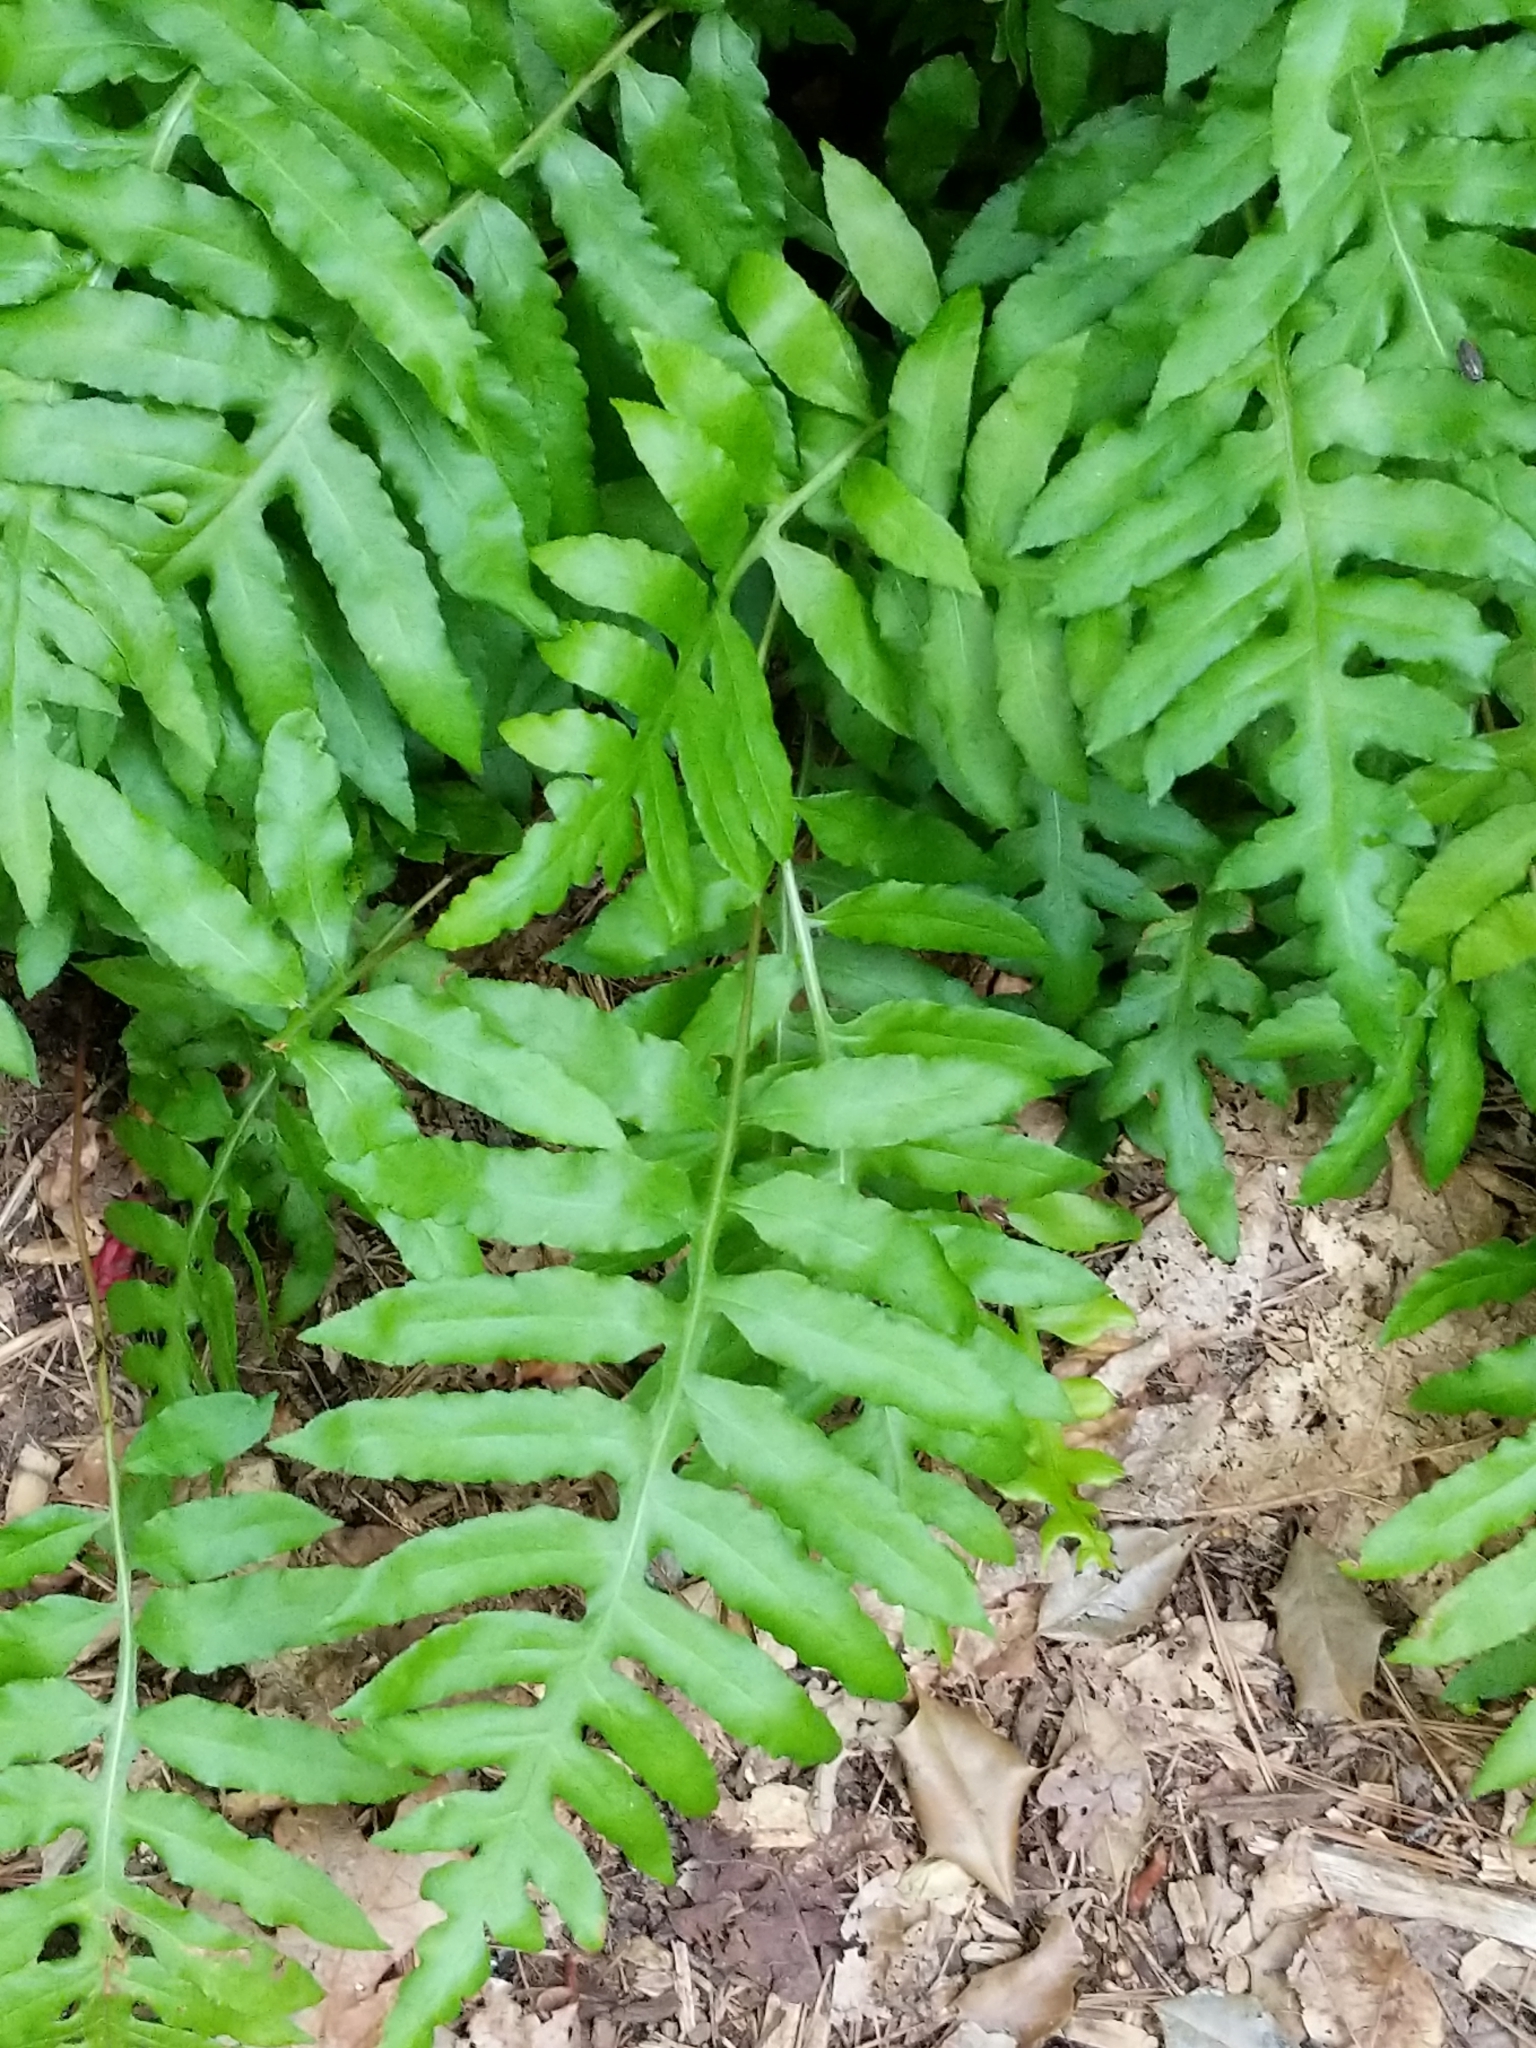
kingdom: Plantae
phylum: Tracheophyta
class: Polypodiopsida
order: Polypodiales
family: Blechnaceae
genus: Lorinseria
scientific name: Lorinseria areolata
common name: Dwarf chain fern
